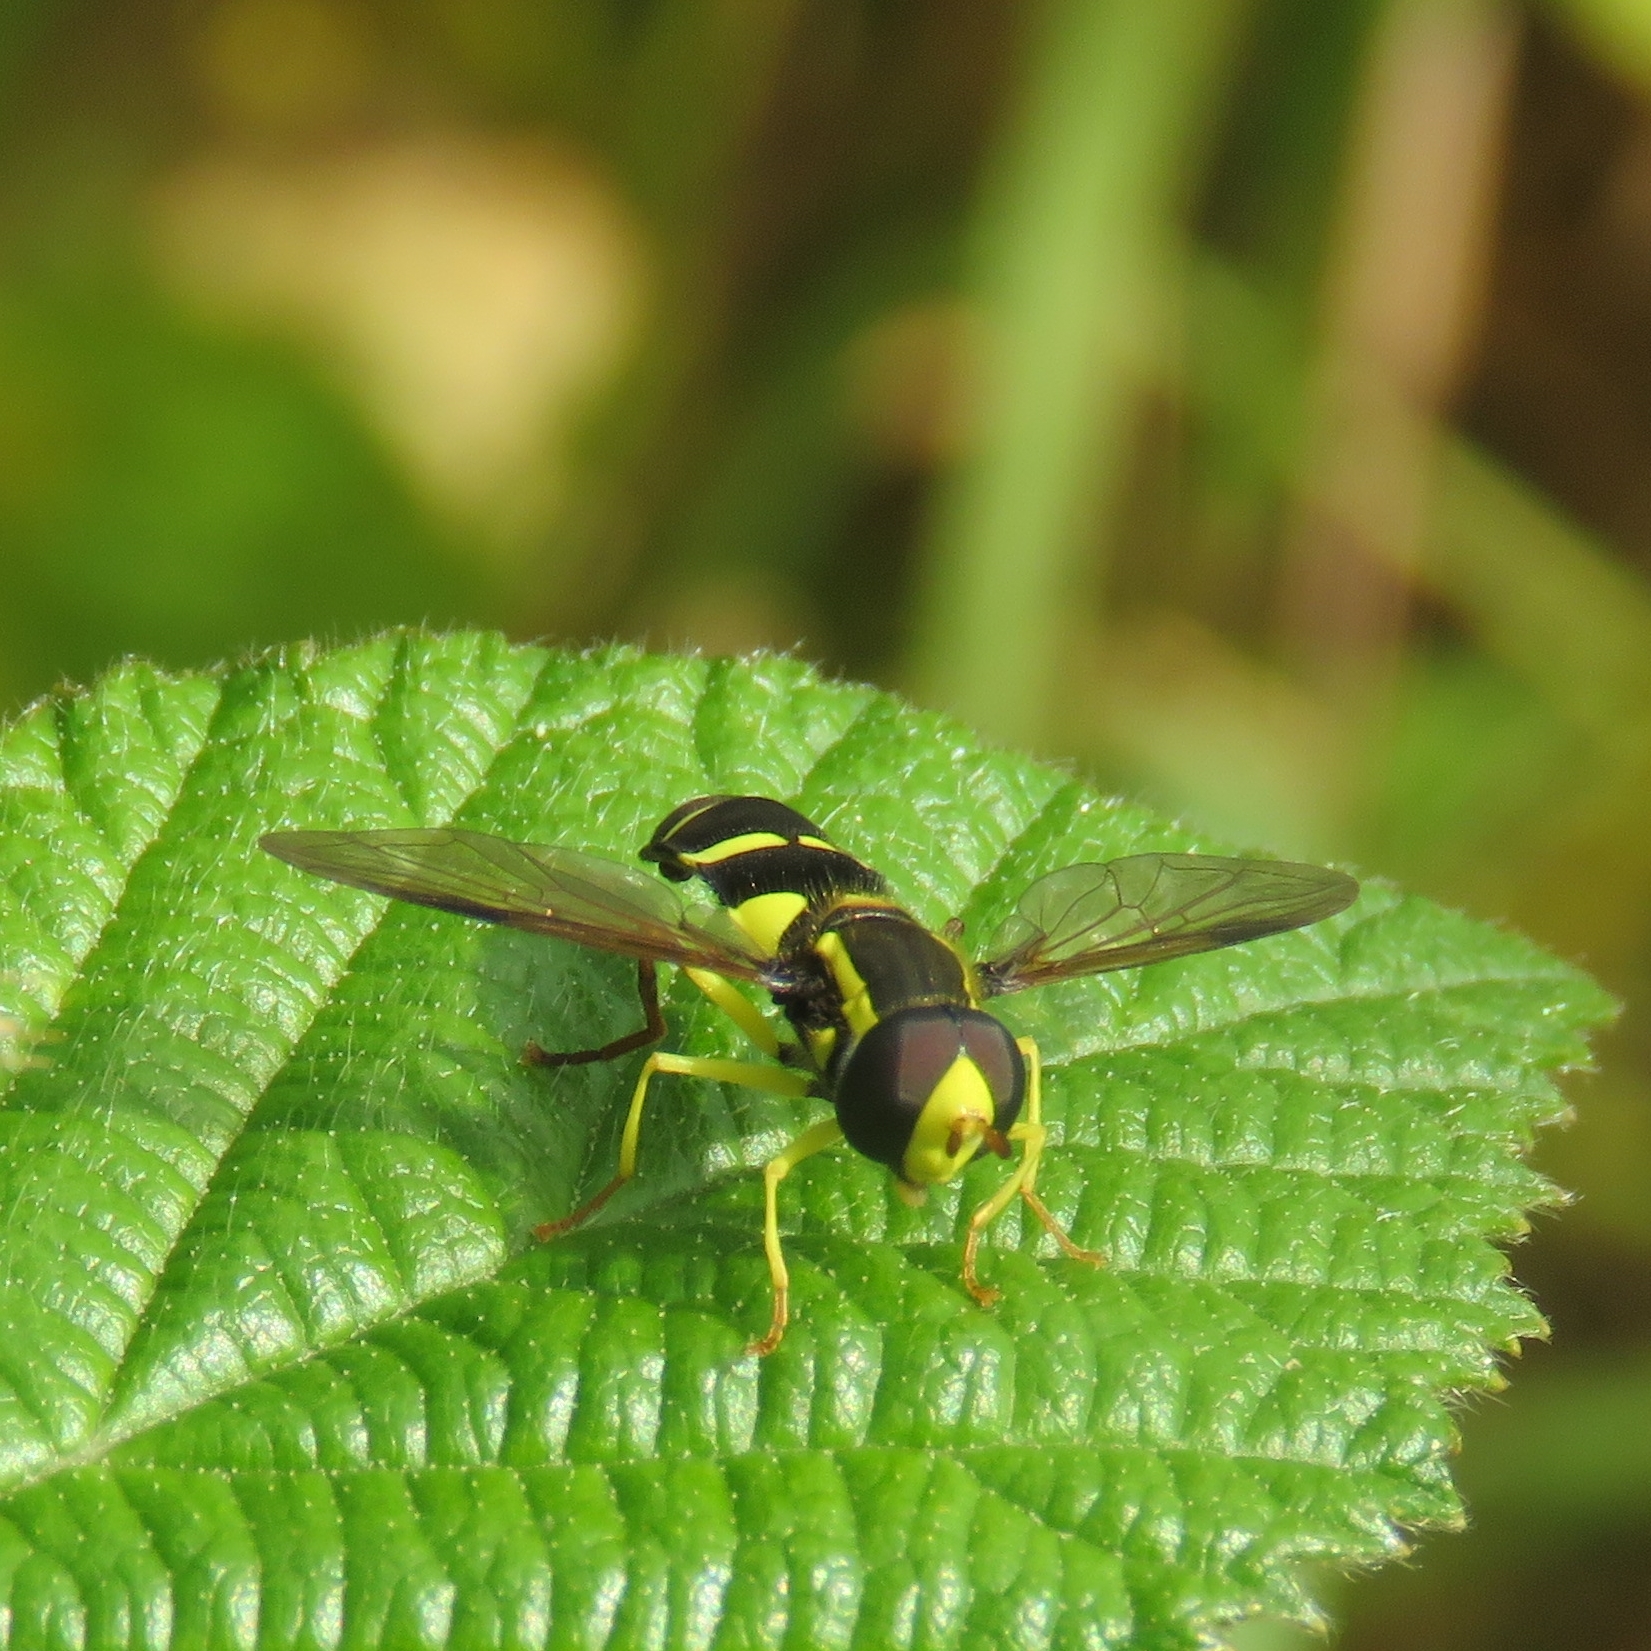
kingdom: Animalia
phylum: Arthropoda
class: Insecta
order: Diptera
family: Syrphidae
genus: Philhelius
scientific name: Philhelius pedissequum
